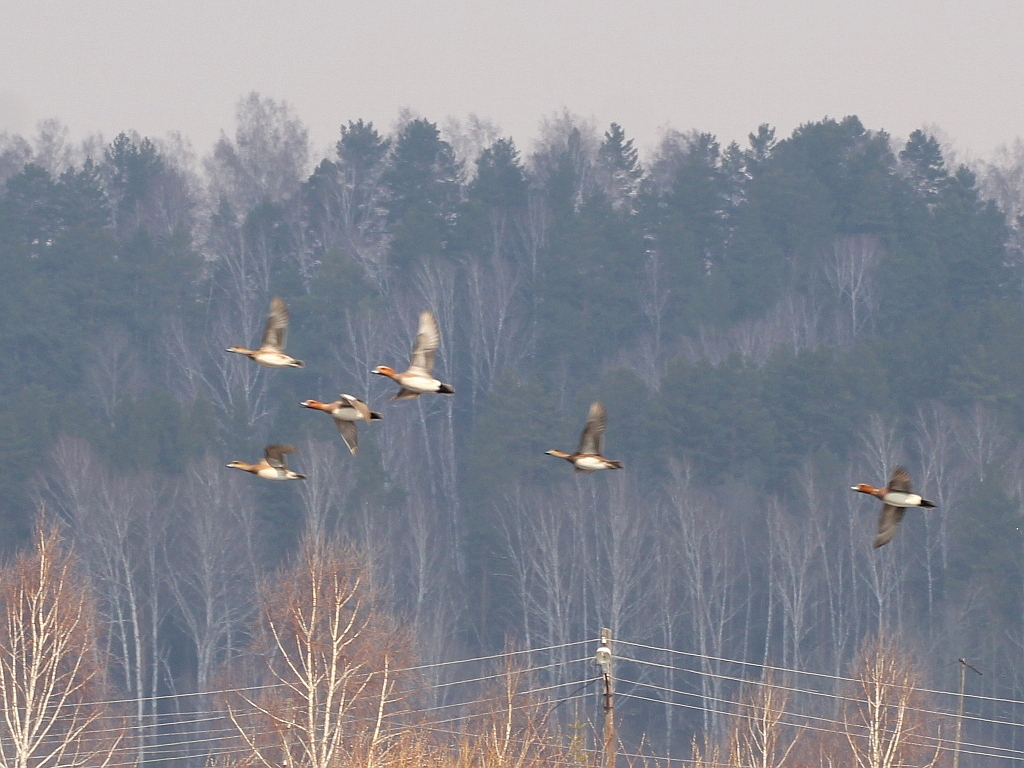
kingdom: Animalia
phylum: Chordata
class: Aves
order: Anseriformes
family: Anatidae
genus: Mareca
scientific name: Mareca penelope
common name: Eurasian wigeon
